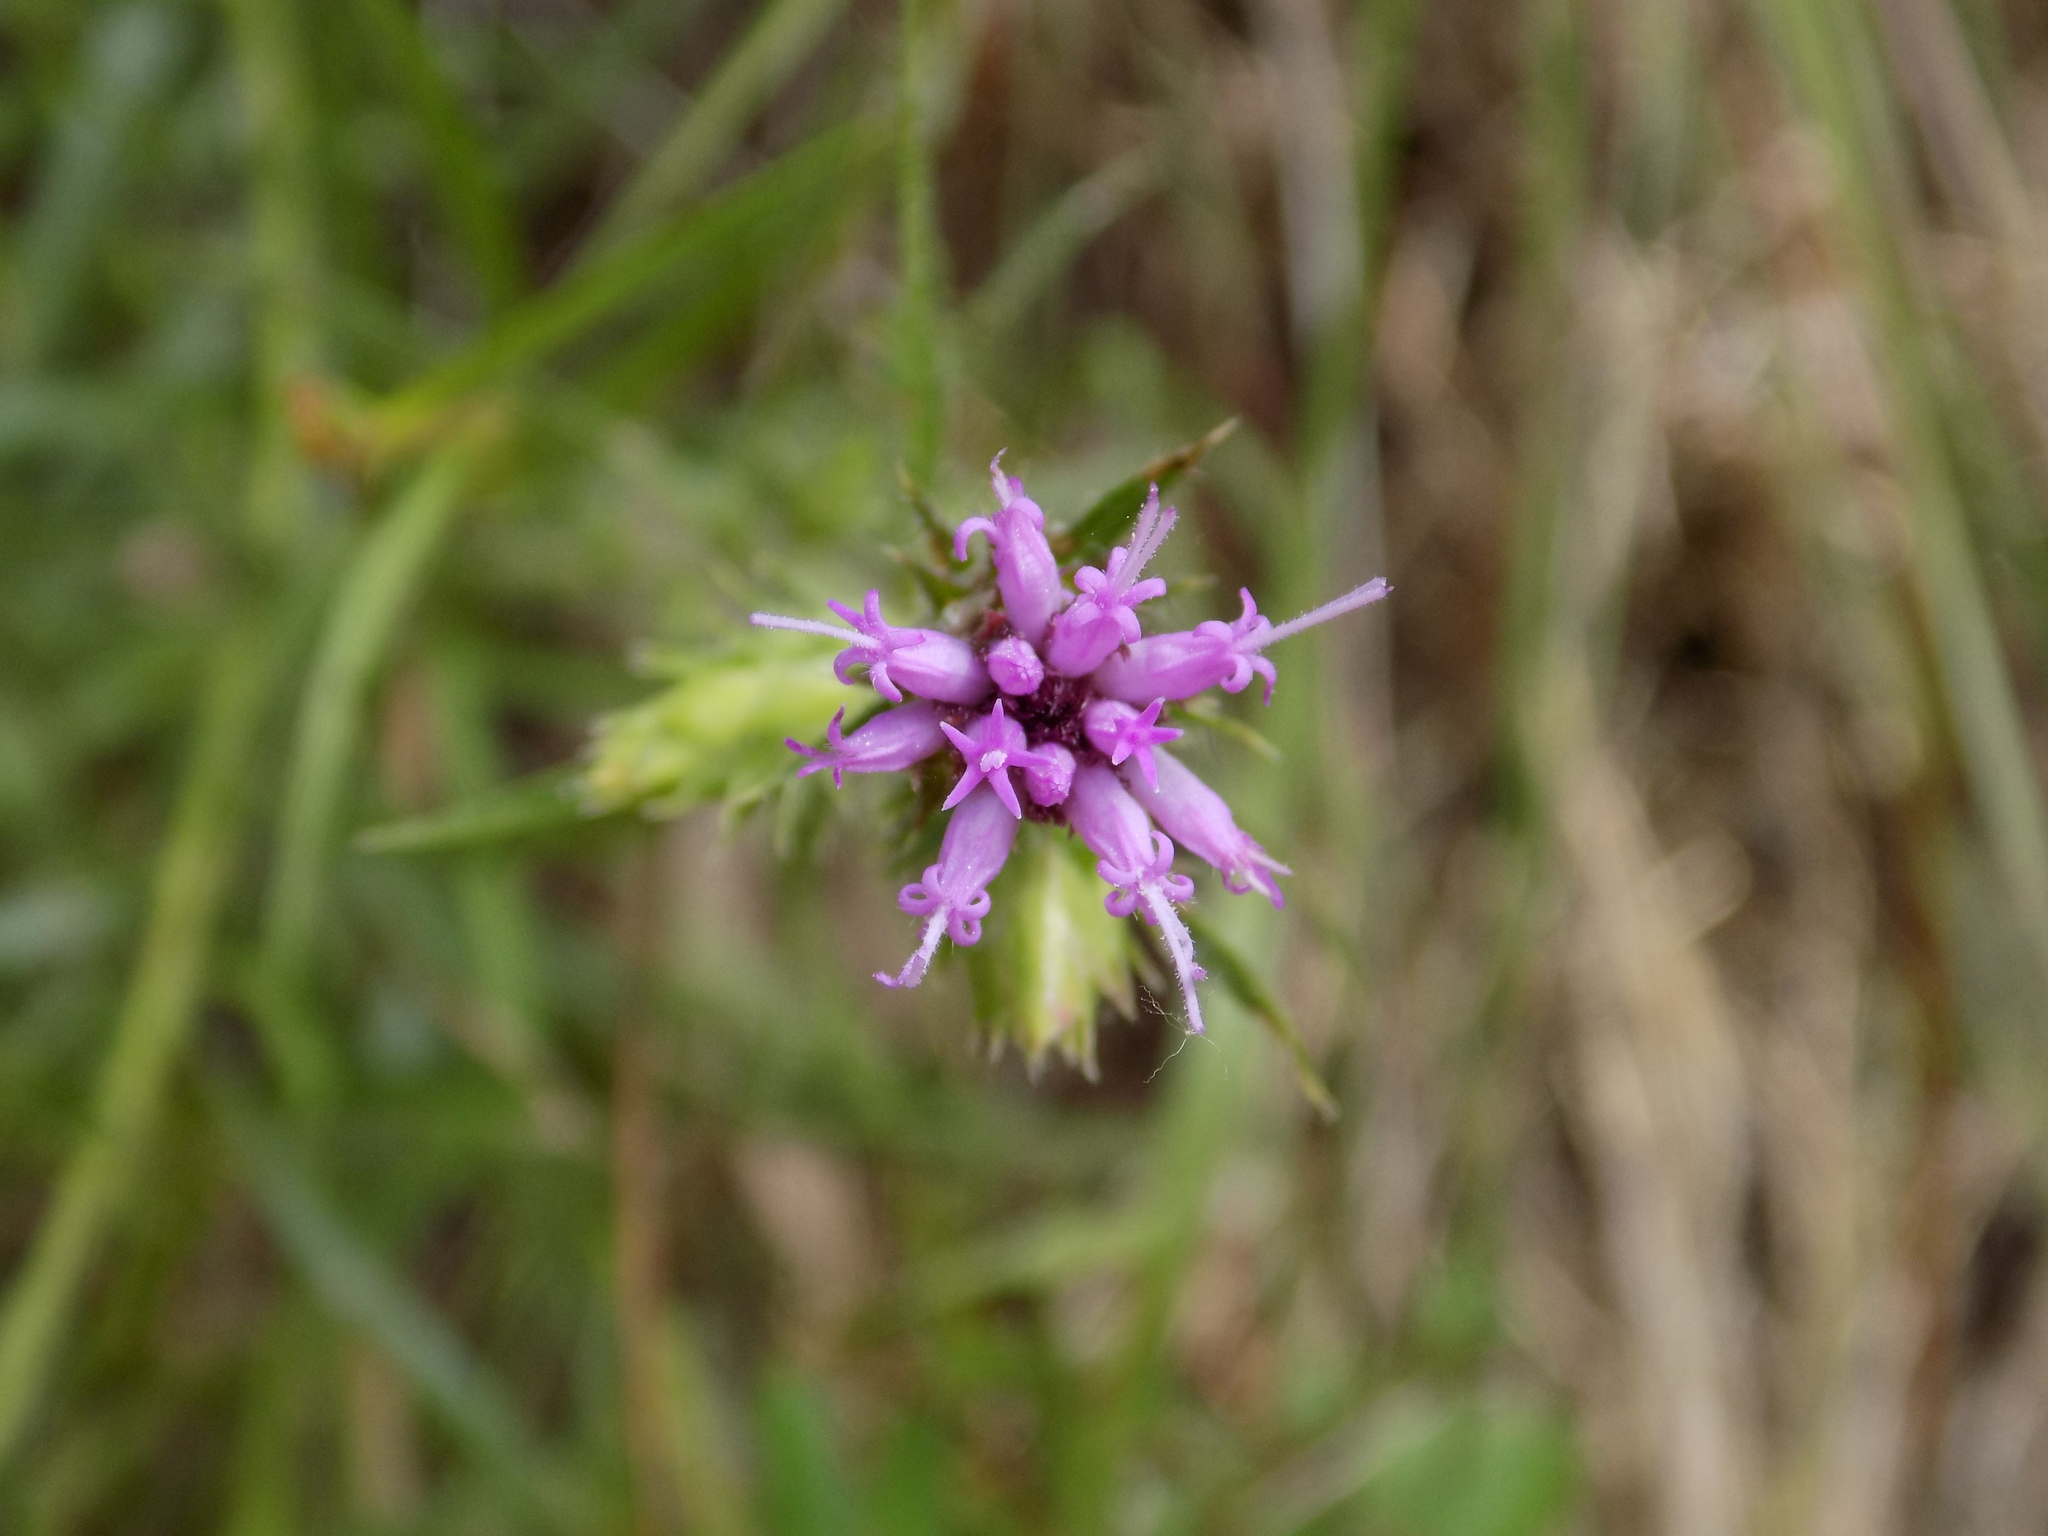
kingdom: Plantae
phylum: Tracheophyta
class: Magnoliopsida
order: Asterales
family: Asteraceae
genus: Liatris
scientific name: Liatris hirsuta
